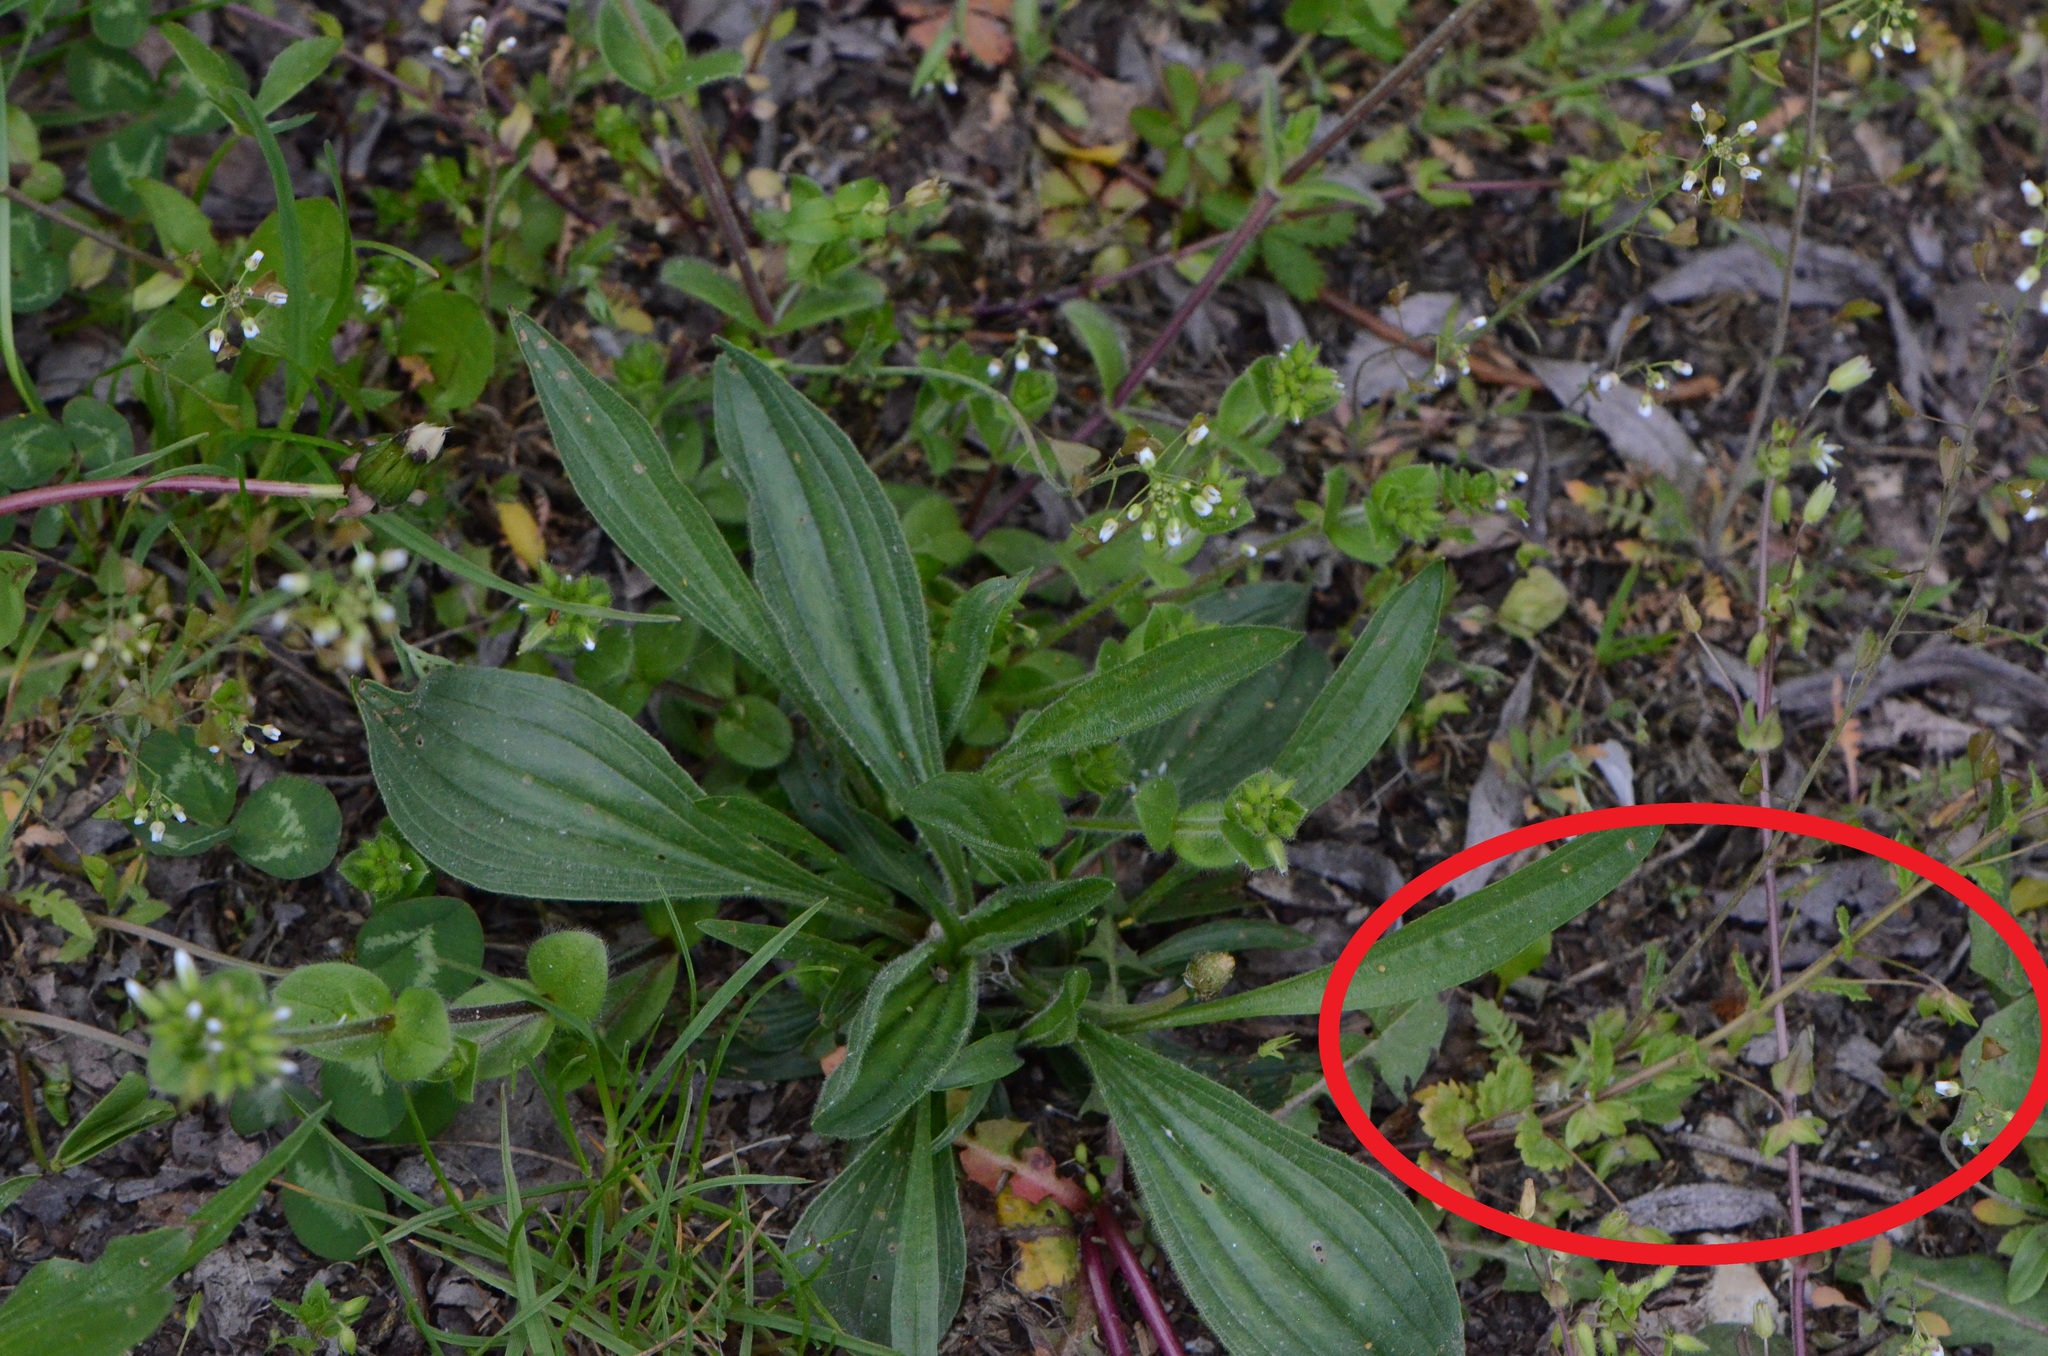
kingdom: Plantae
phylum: Tracheophyta
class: Magnoliopsida
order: Lamiales
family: Plantaginaceae
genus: Veronica
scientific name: Veronica persica
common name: Common field-speedwell
